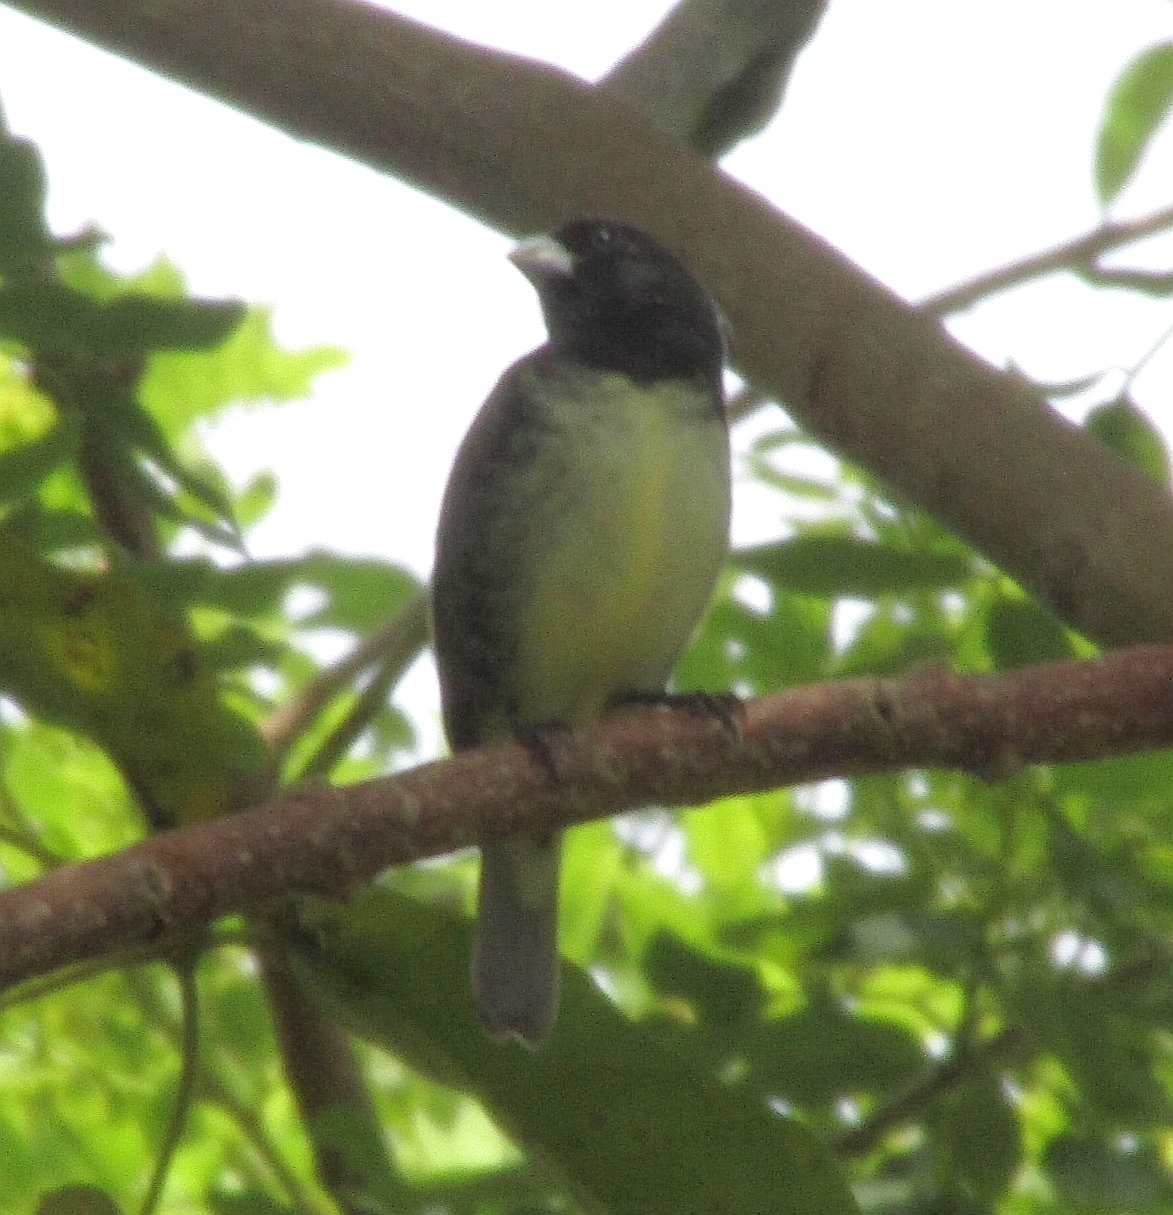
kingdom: Animalia
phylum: Chordata
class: Aves
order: Passeriformes
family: Thraupidae
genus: Sporophila
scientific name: Sporophila nigricollis
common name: Yellow-bellied seedeater
